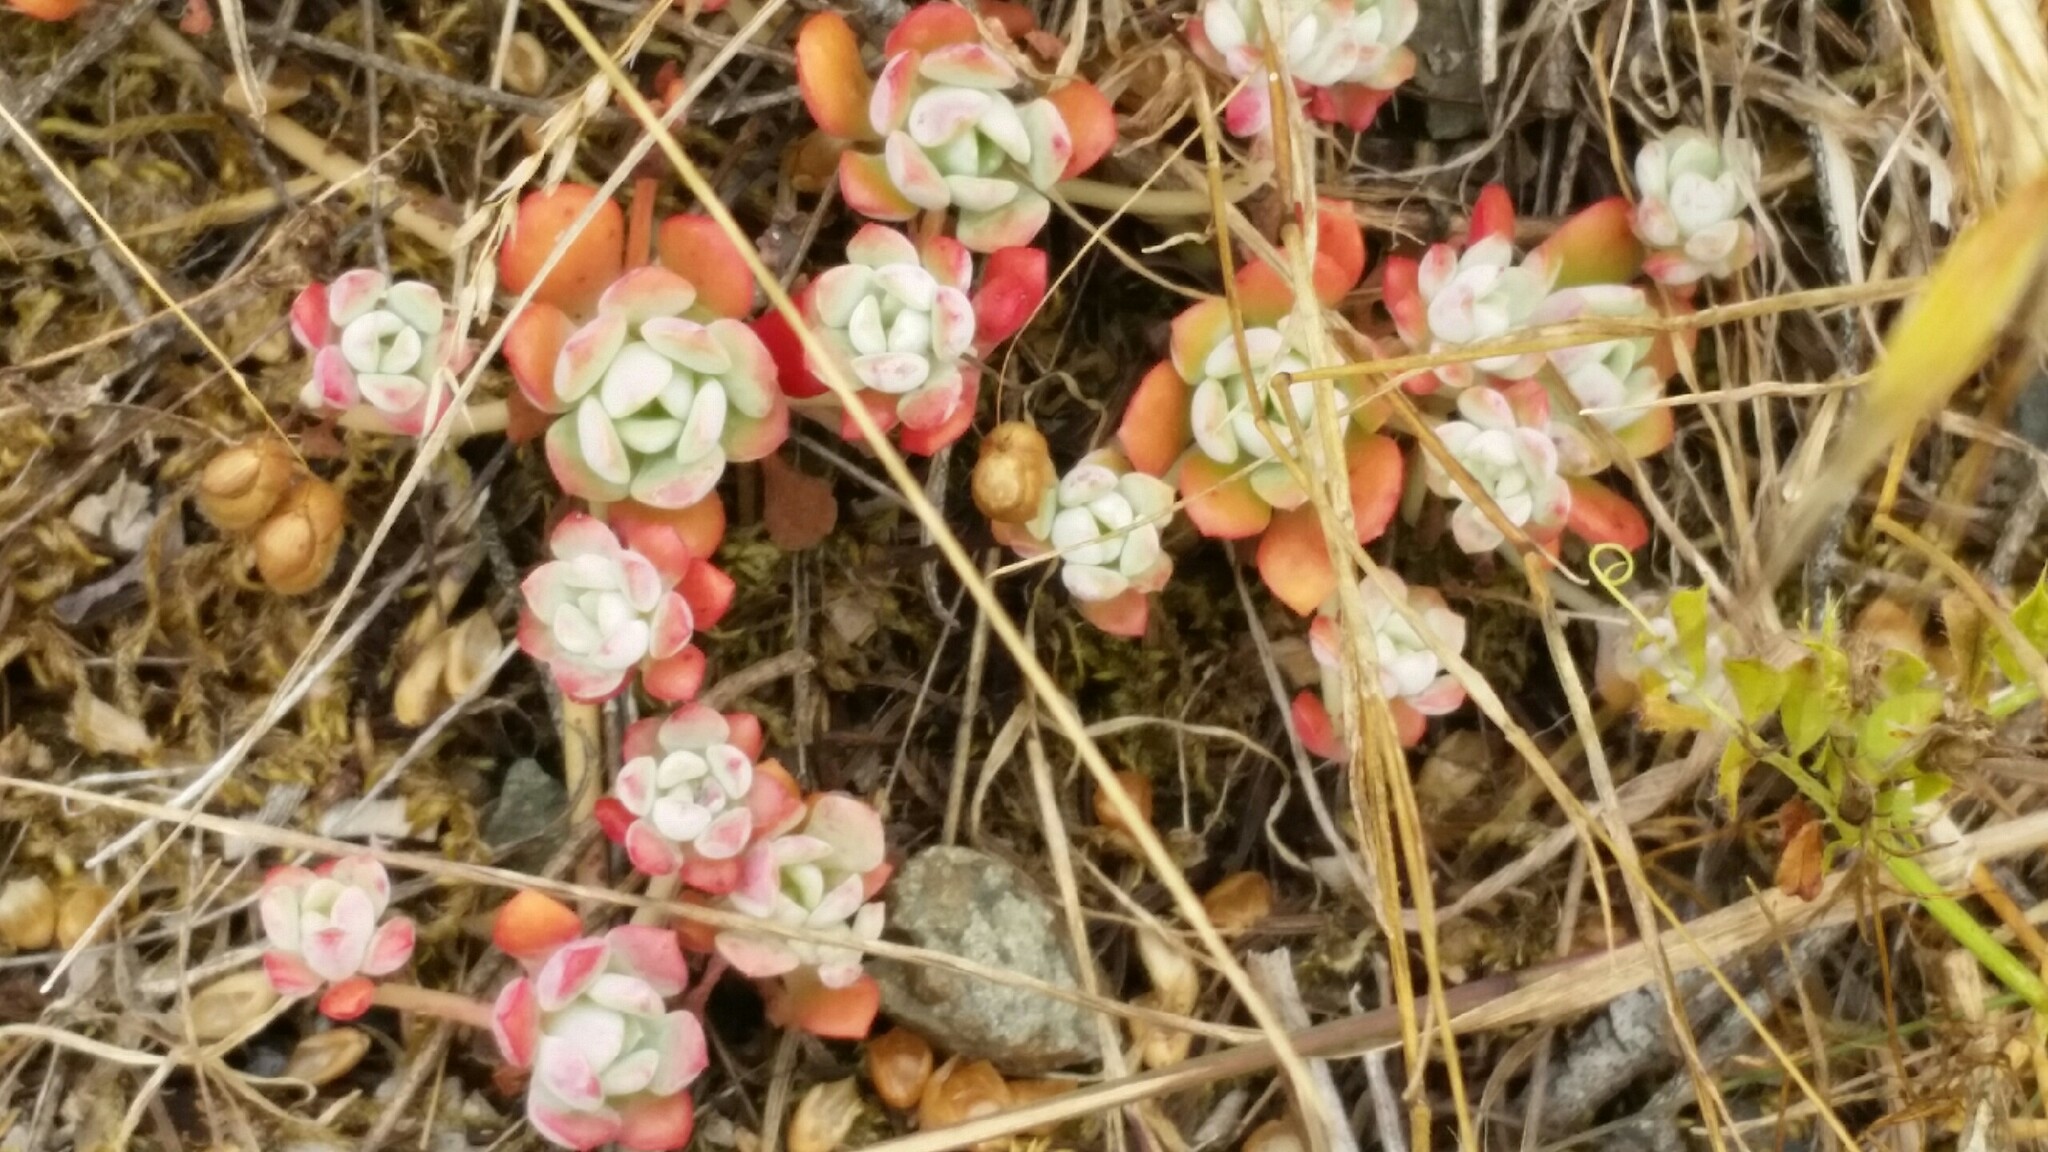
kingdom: Plantae
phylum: Tracheophyta
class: Magnoliopsida
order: Saxifragales
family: Crassulaceae
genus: Sedum
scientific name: Sedum spathulifolium
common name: Colorado stonecrop
